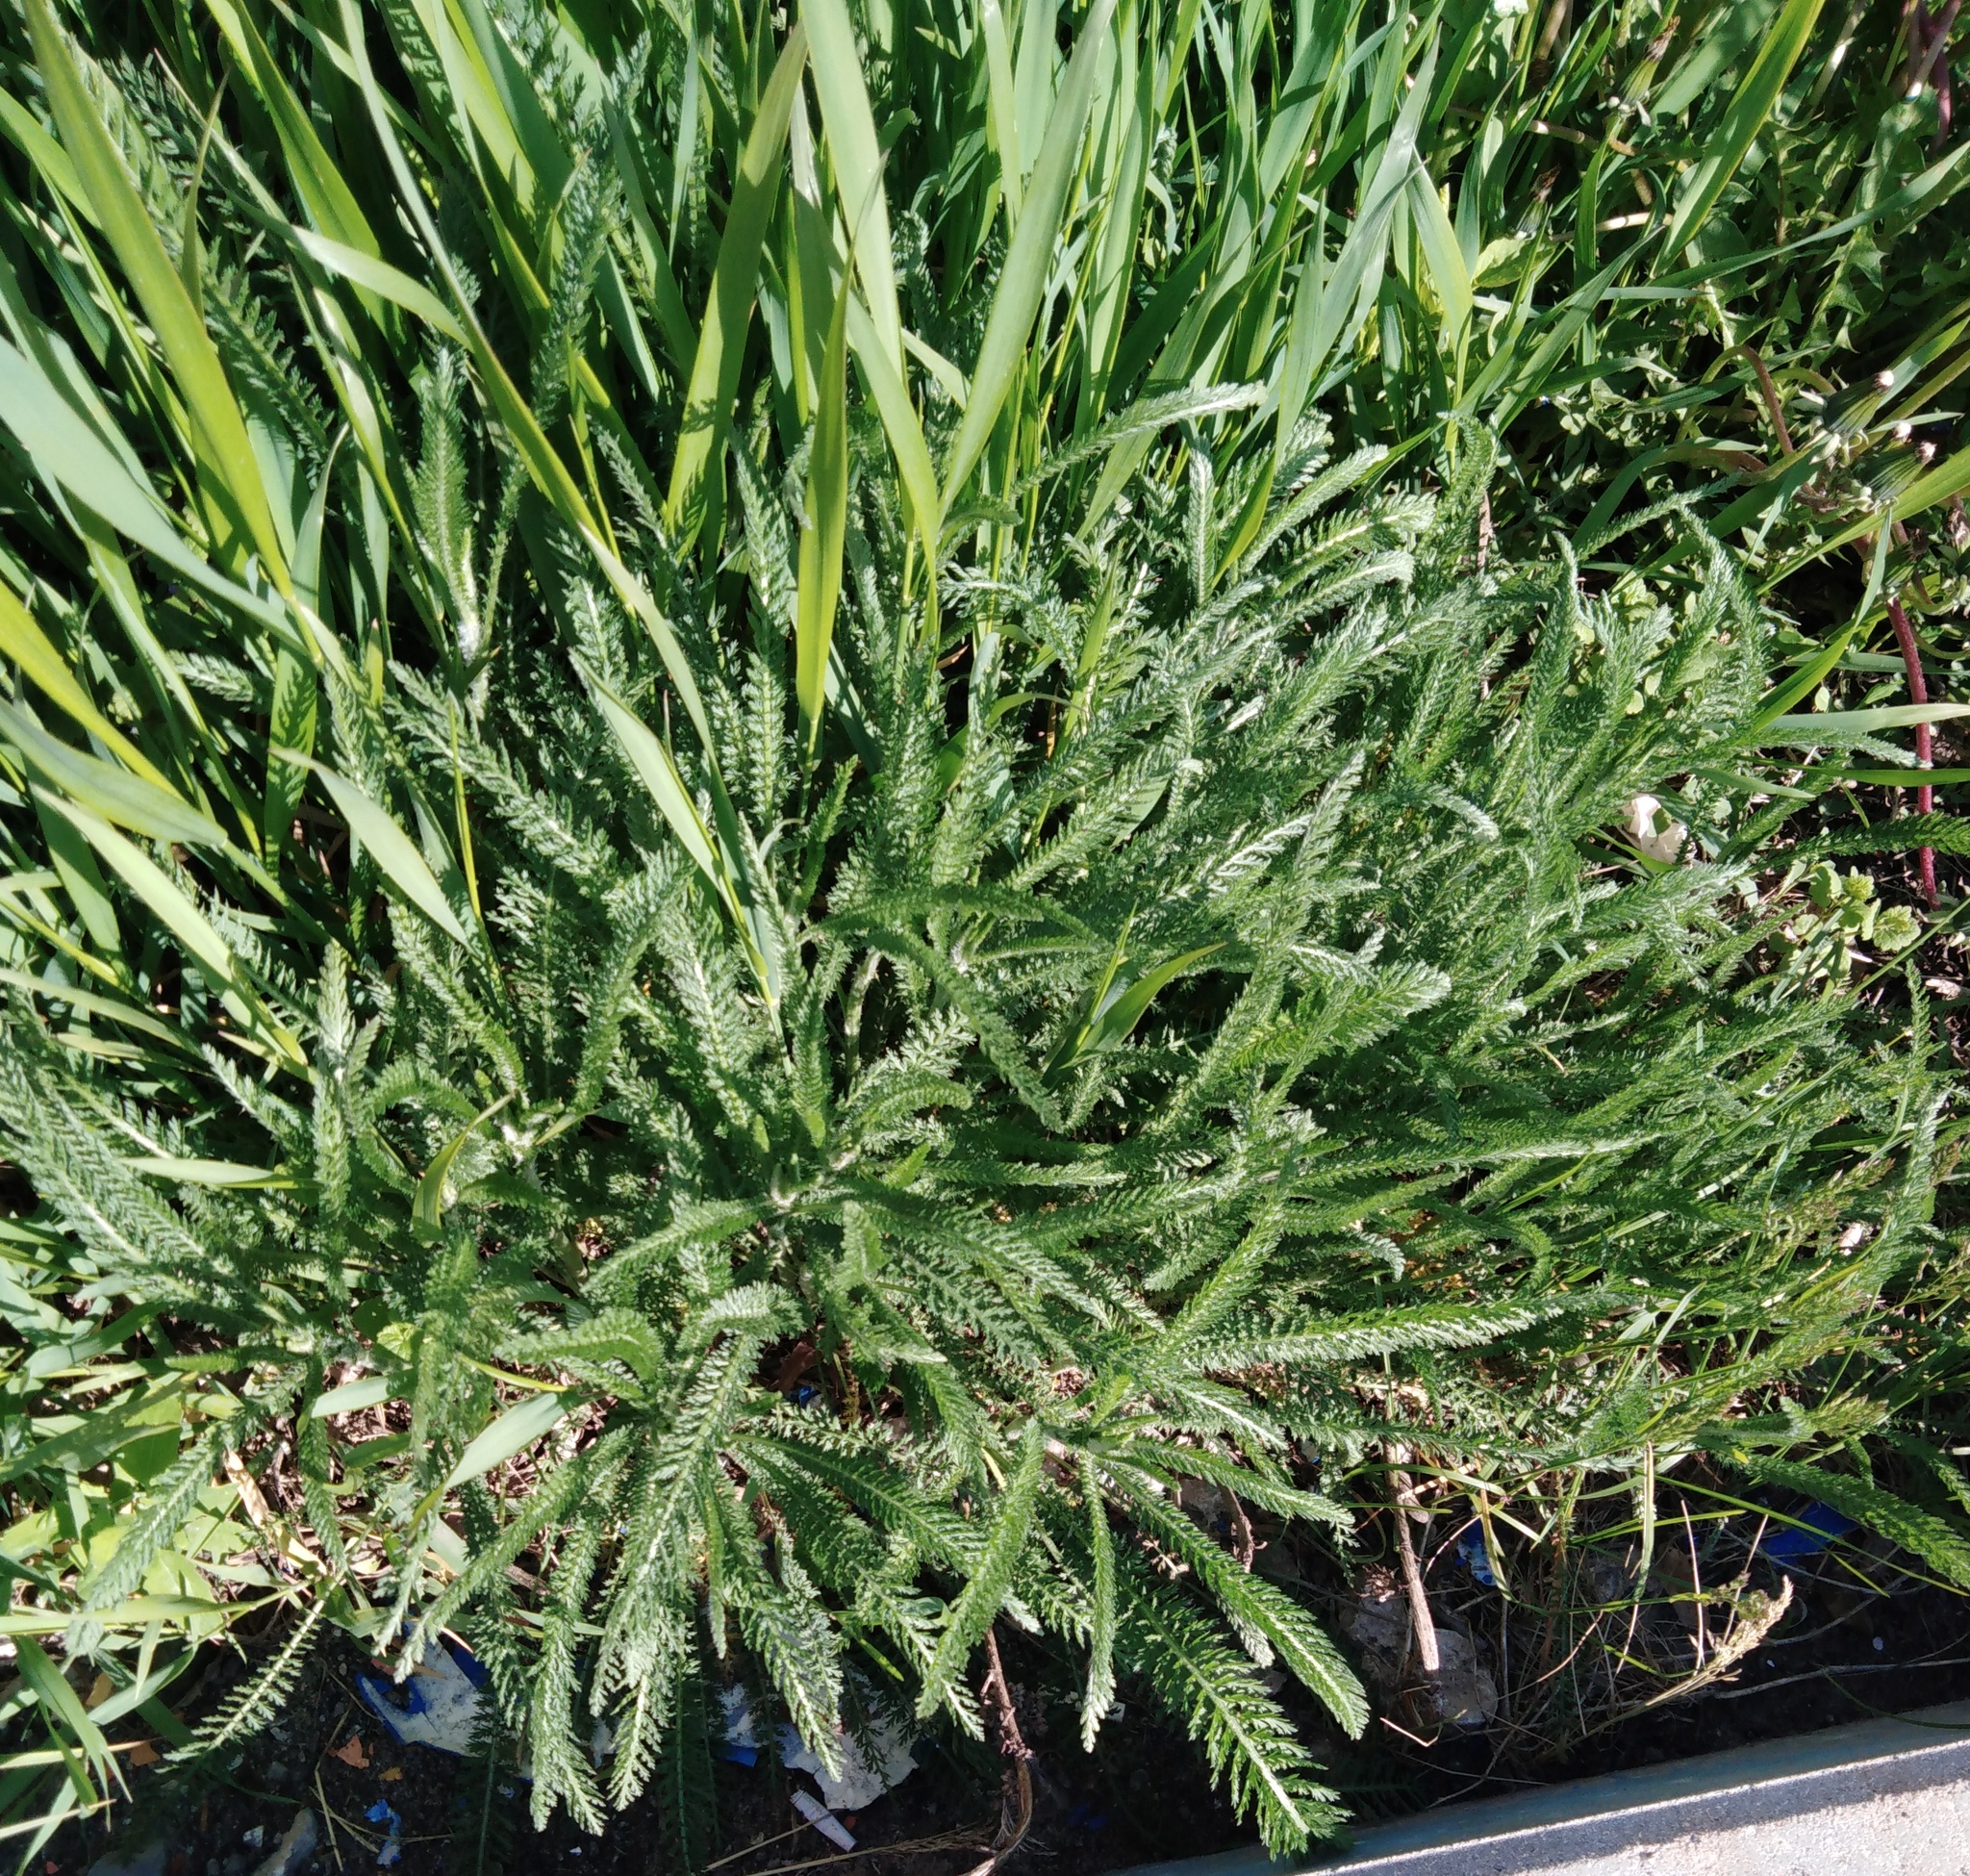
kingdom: Plantae
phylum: Tracheophyta
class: Magnoliopsida
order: Asterales
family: Asteraceae
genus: Achillea
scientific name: Achillea setacea
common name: Bristly yarrow
